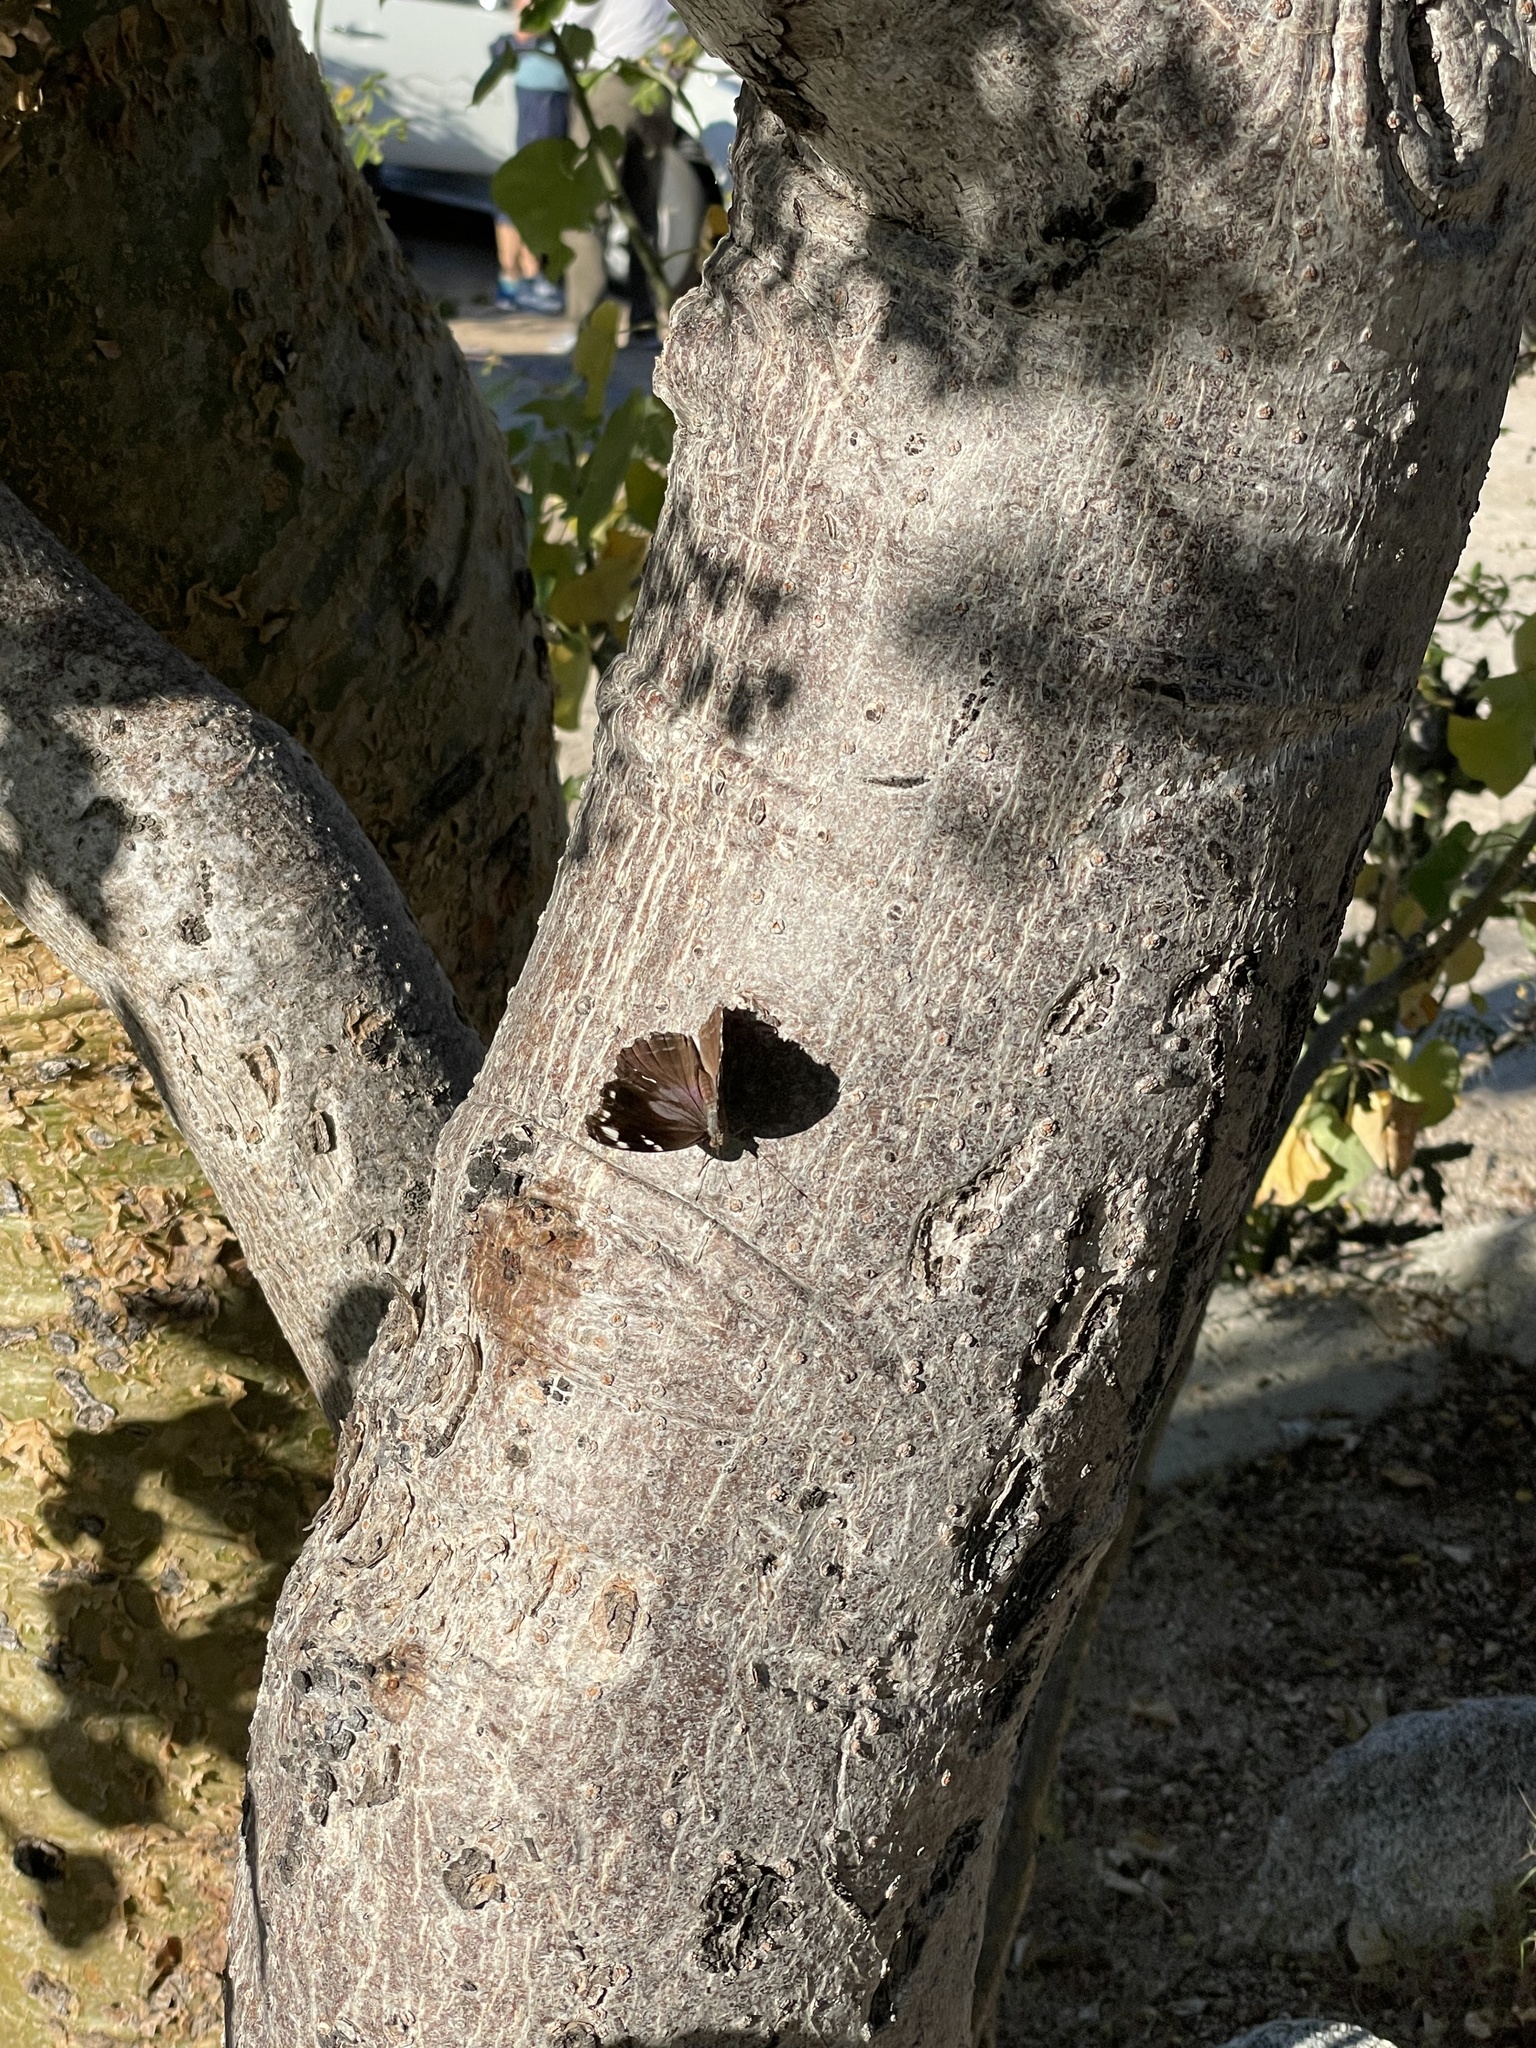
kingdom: Animalia
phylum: Arthropoda
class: Insecta
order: Lepidoptera
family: Nymphalidae
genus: Myscelia
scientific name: Myscelia cyananthe
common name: Blackened bluewing
